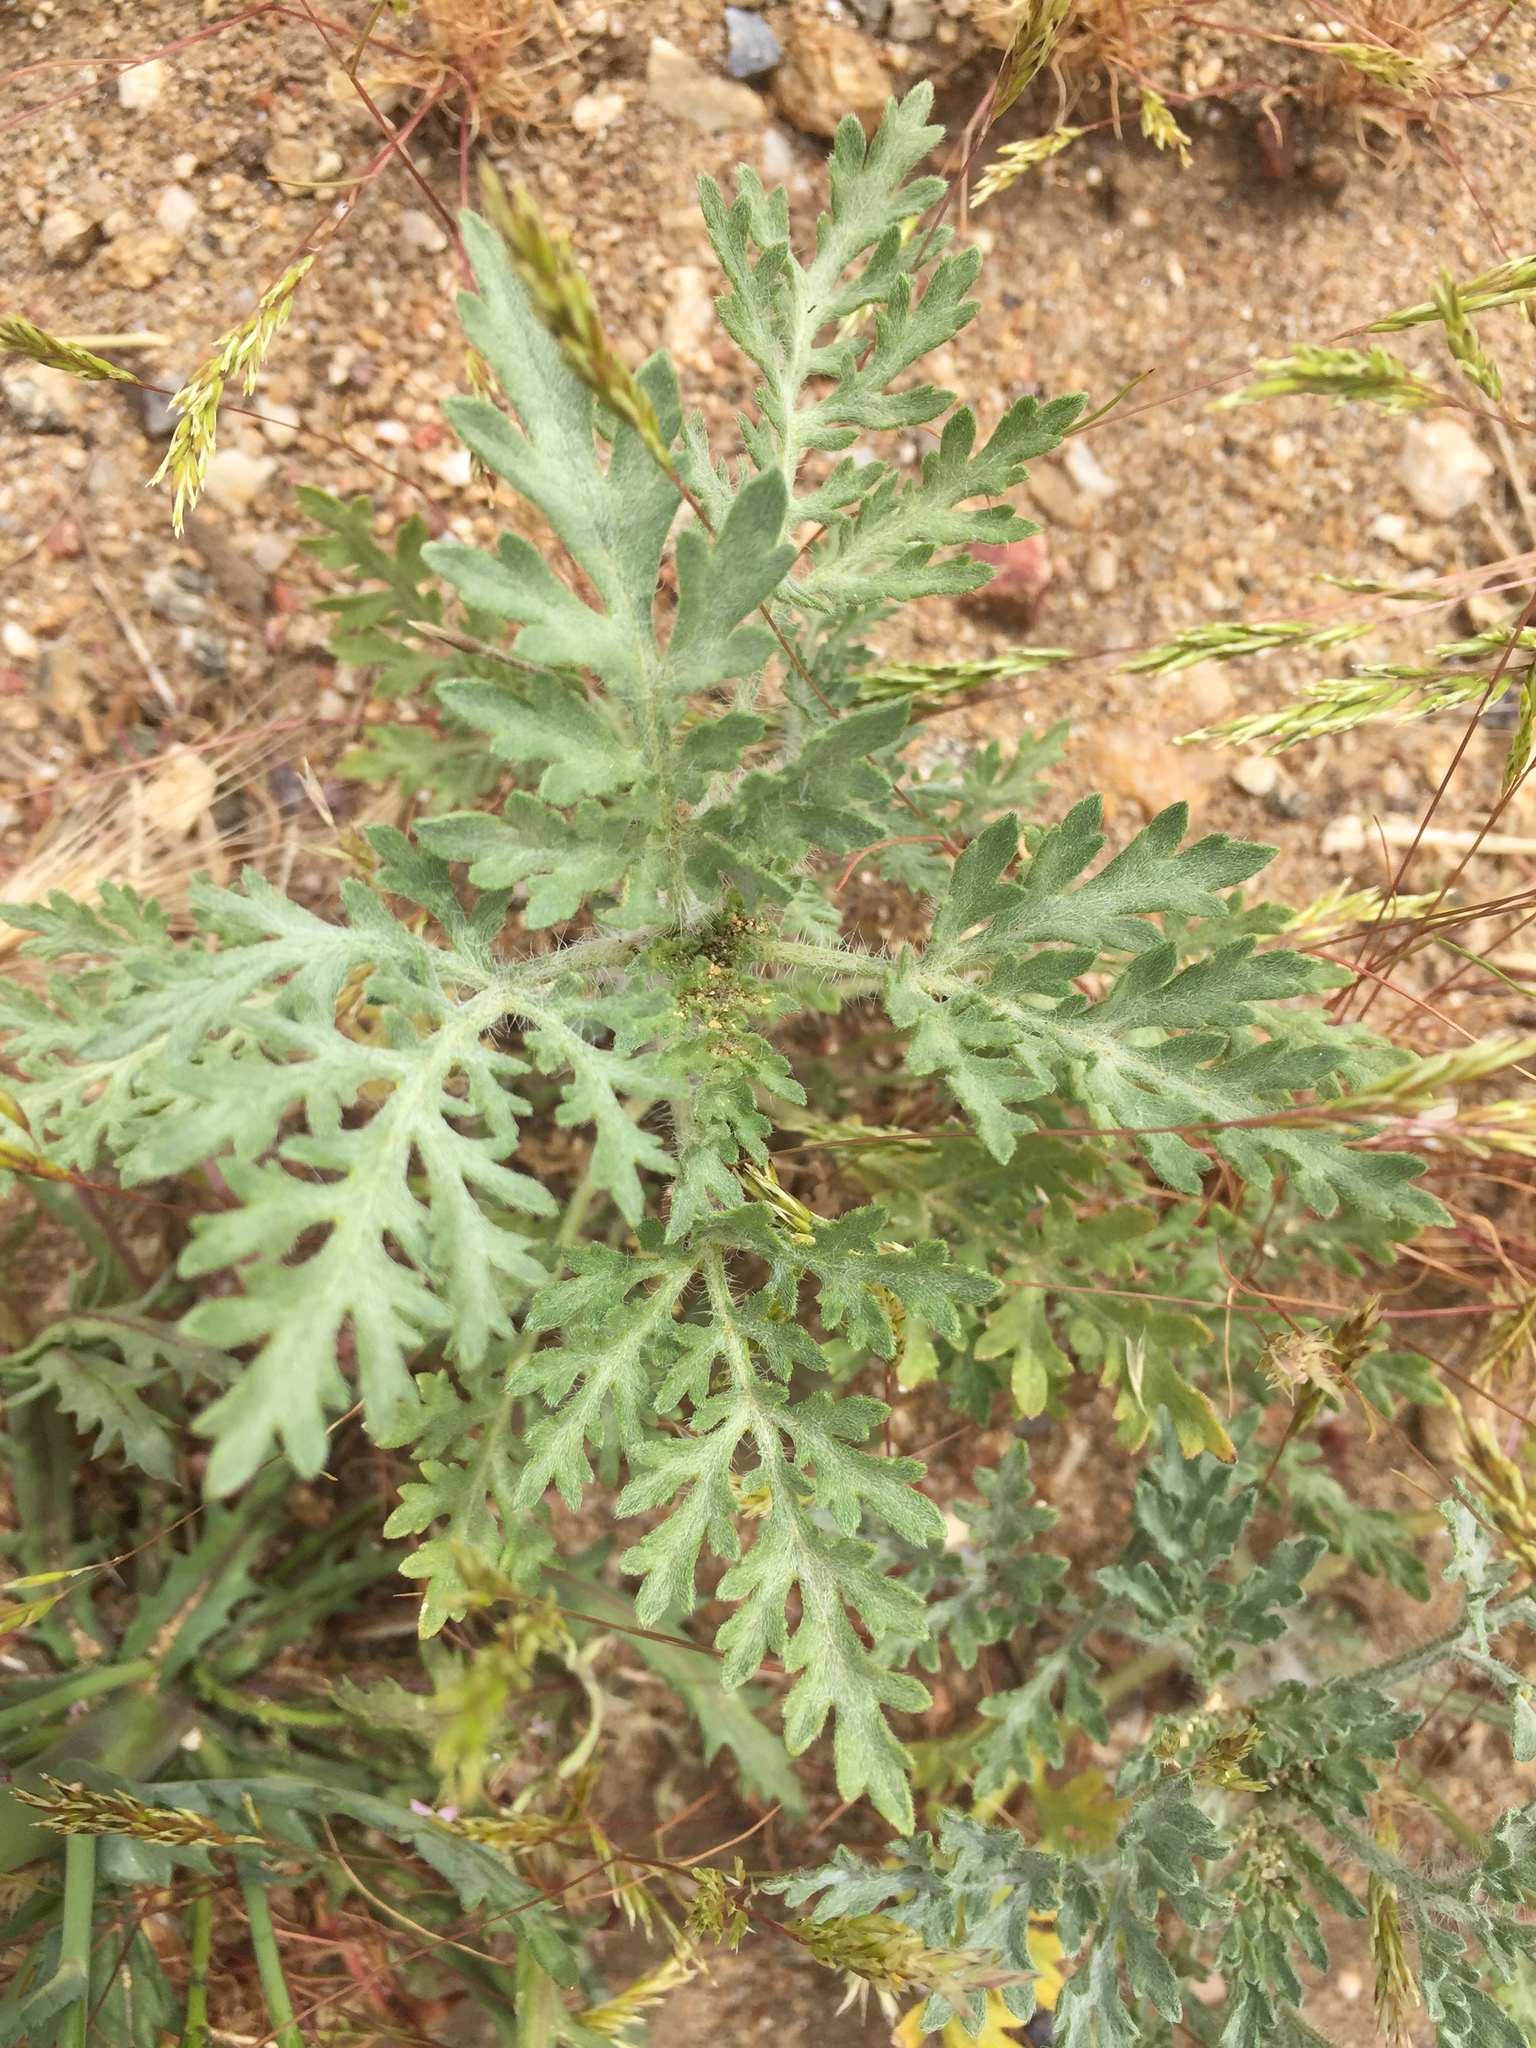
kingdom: Plantae
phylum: Tracheophyta
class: Magnoliopsida
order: Asterales
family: Asteraceae
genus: Ambrosia
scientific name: Ambrosia acanthicarpa
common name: Hooker's bur ragweed
